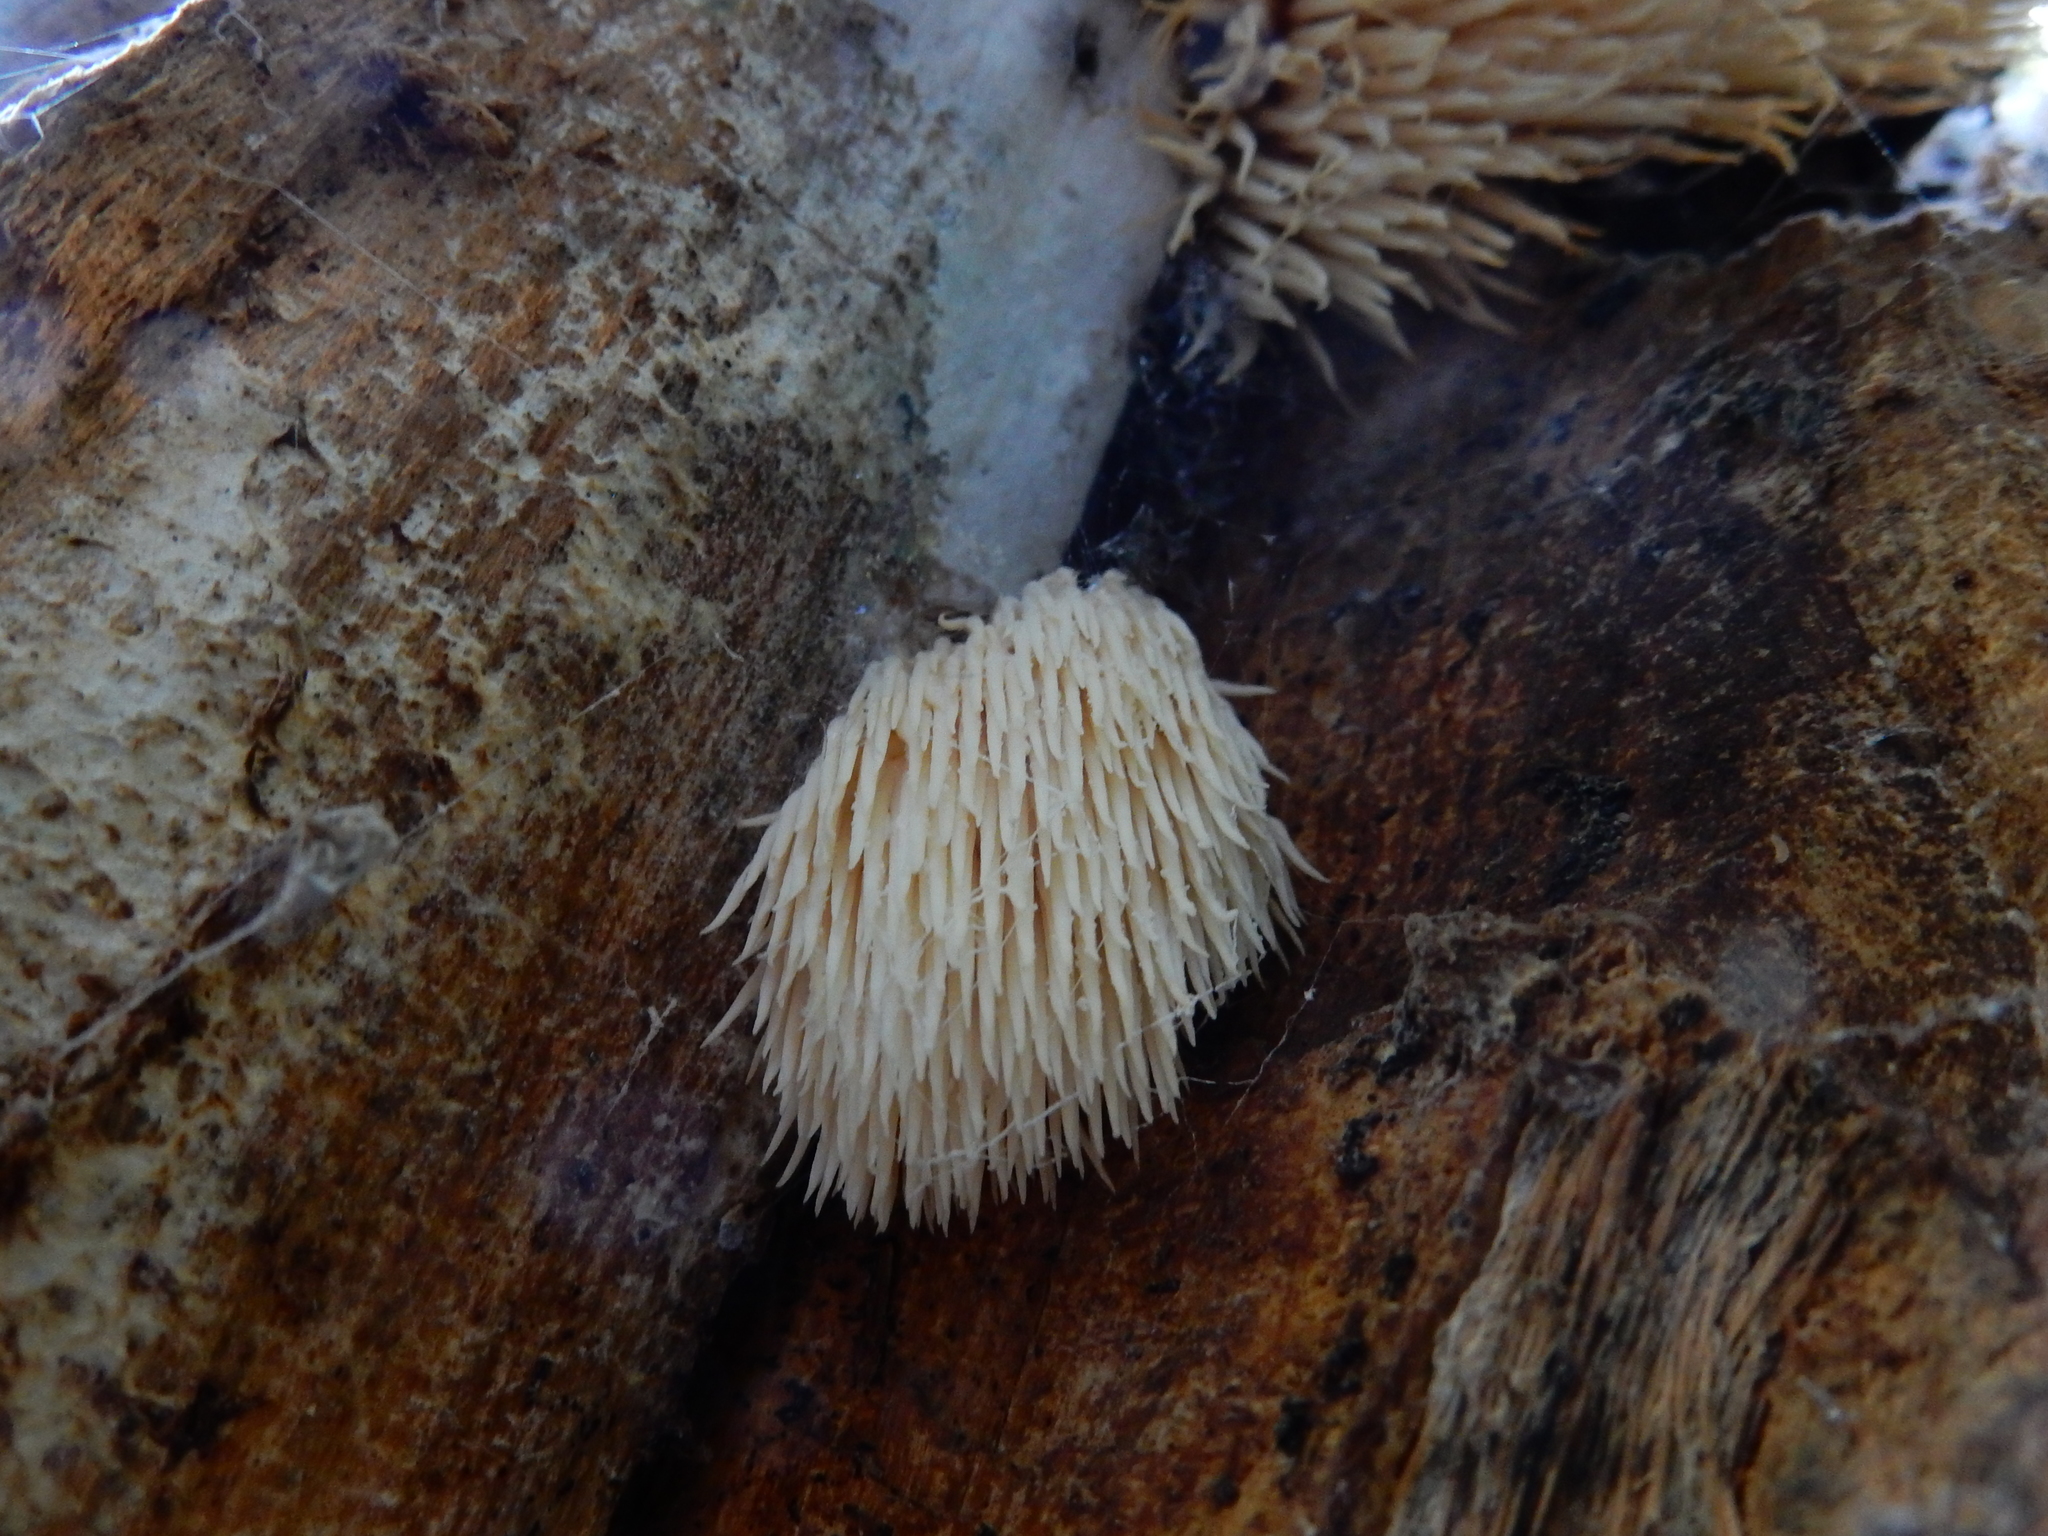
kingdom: Fungi
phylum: Basidiomycota
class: Agaricomycetes
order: Russulales
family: Hericiaceae
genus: Hericium
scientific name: Hericium novae-zealandiae
